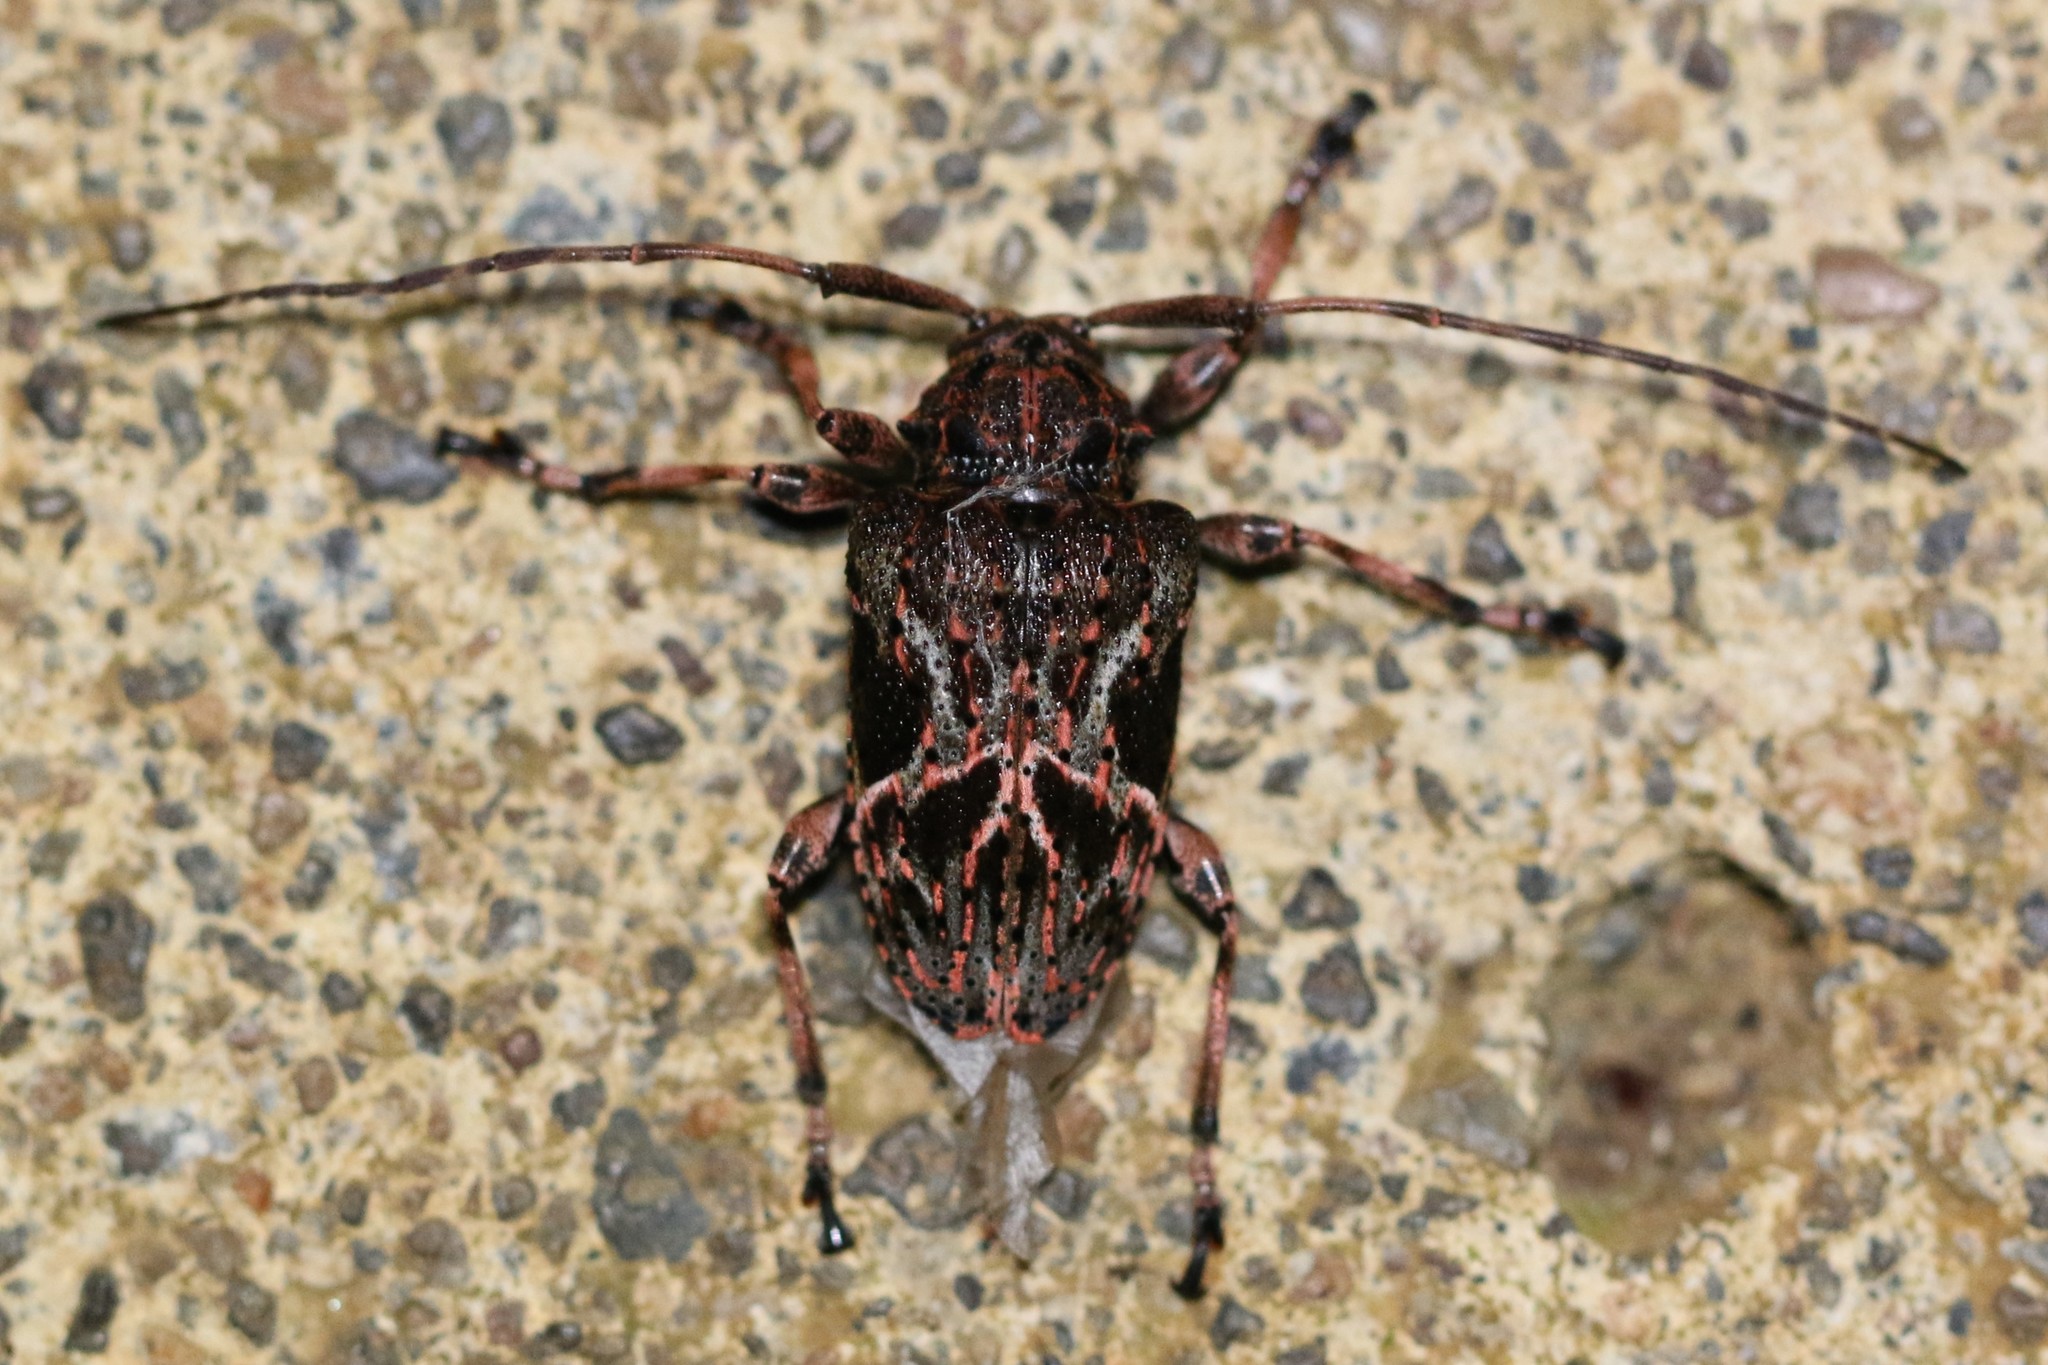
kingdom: Animalia
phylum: Arthropoda
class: Insecta
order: Coleoptera
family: Cerambycidae
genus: Lagocheirus
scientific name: Lagocheirus rosaceus
